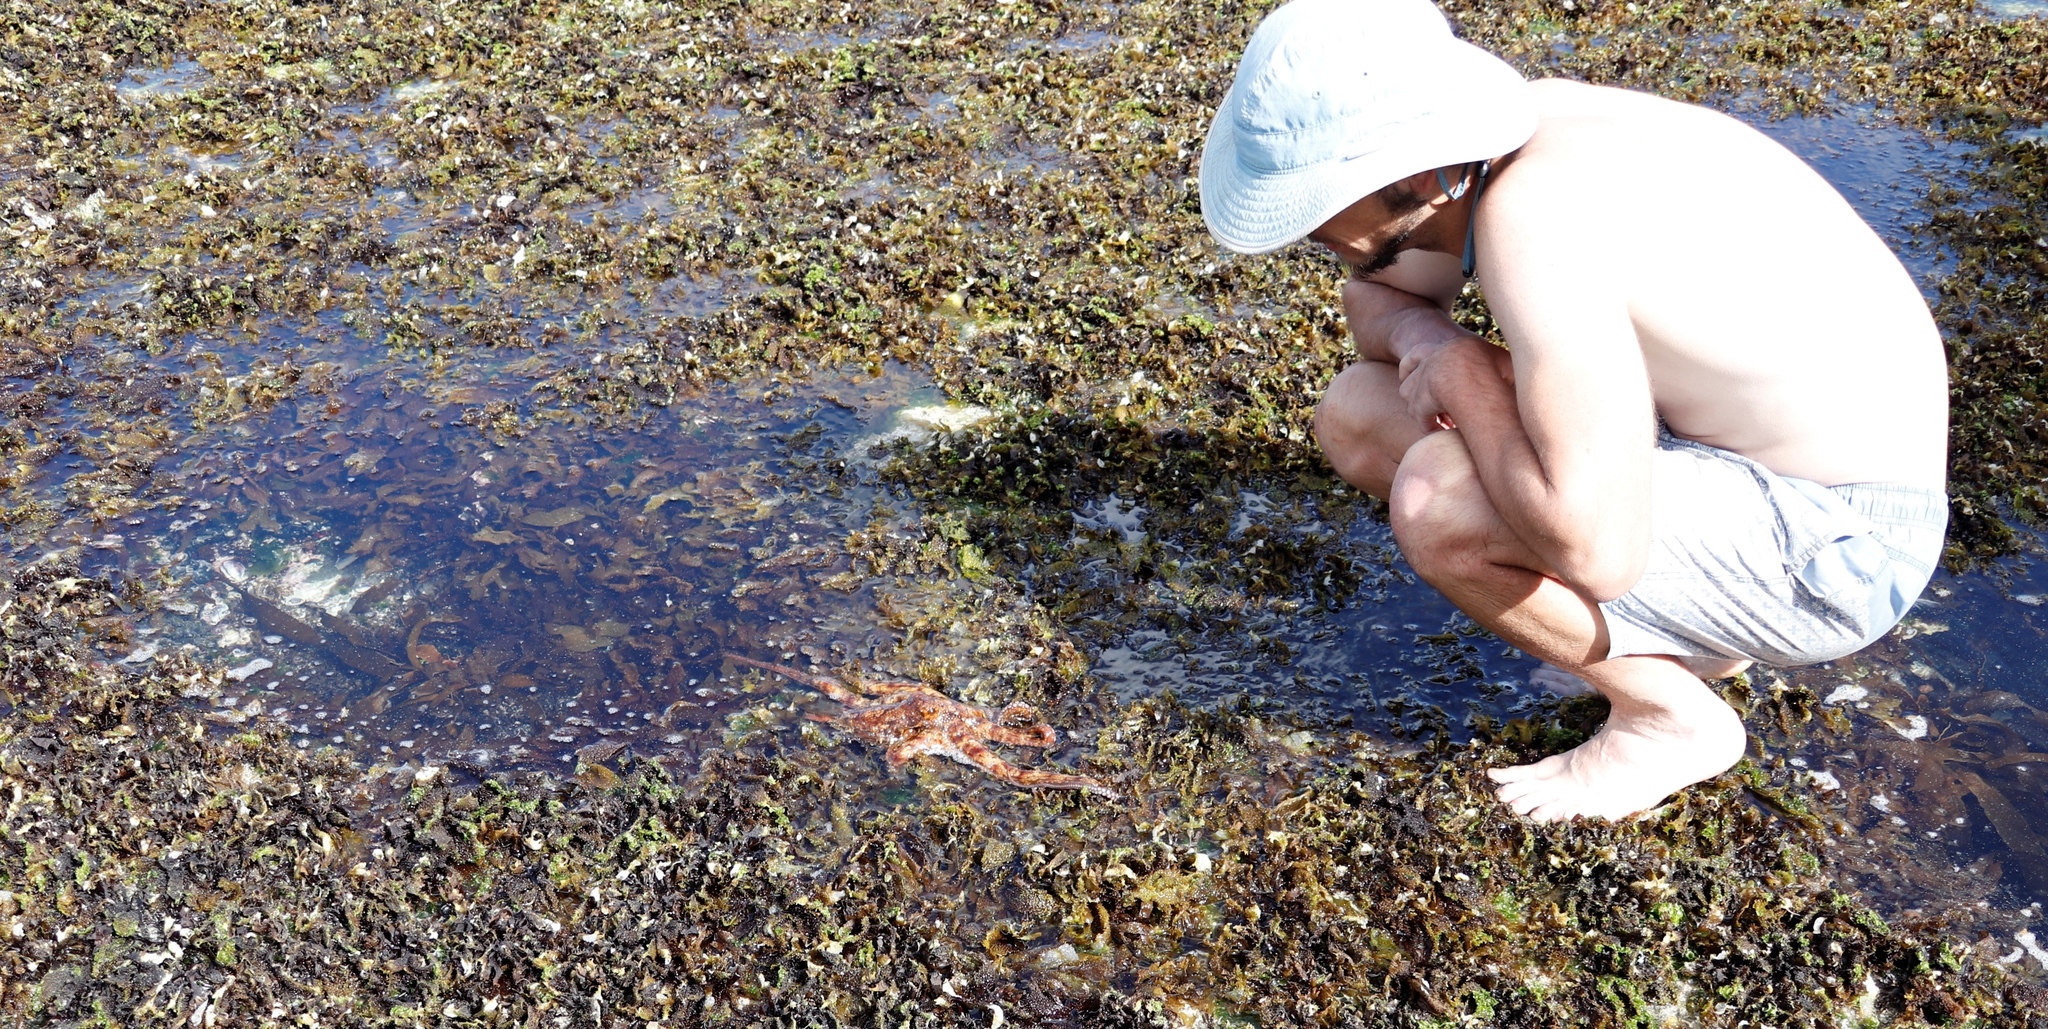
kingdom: Animalia
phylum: Mollusca
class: Cephalopoda
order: Octopoda
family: Octopodidae
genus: Octopus
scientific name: Octopus vulgaris
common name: Common octopus
